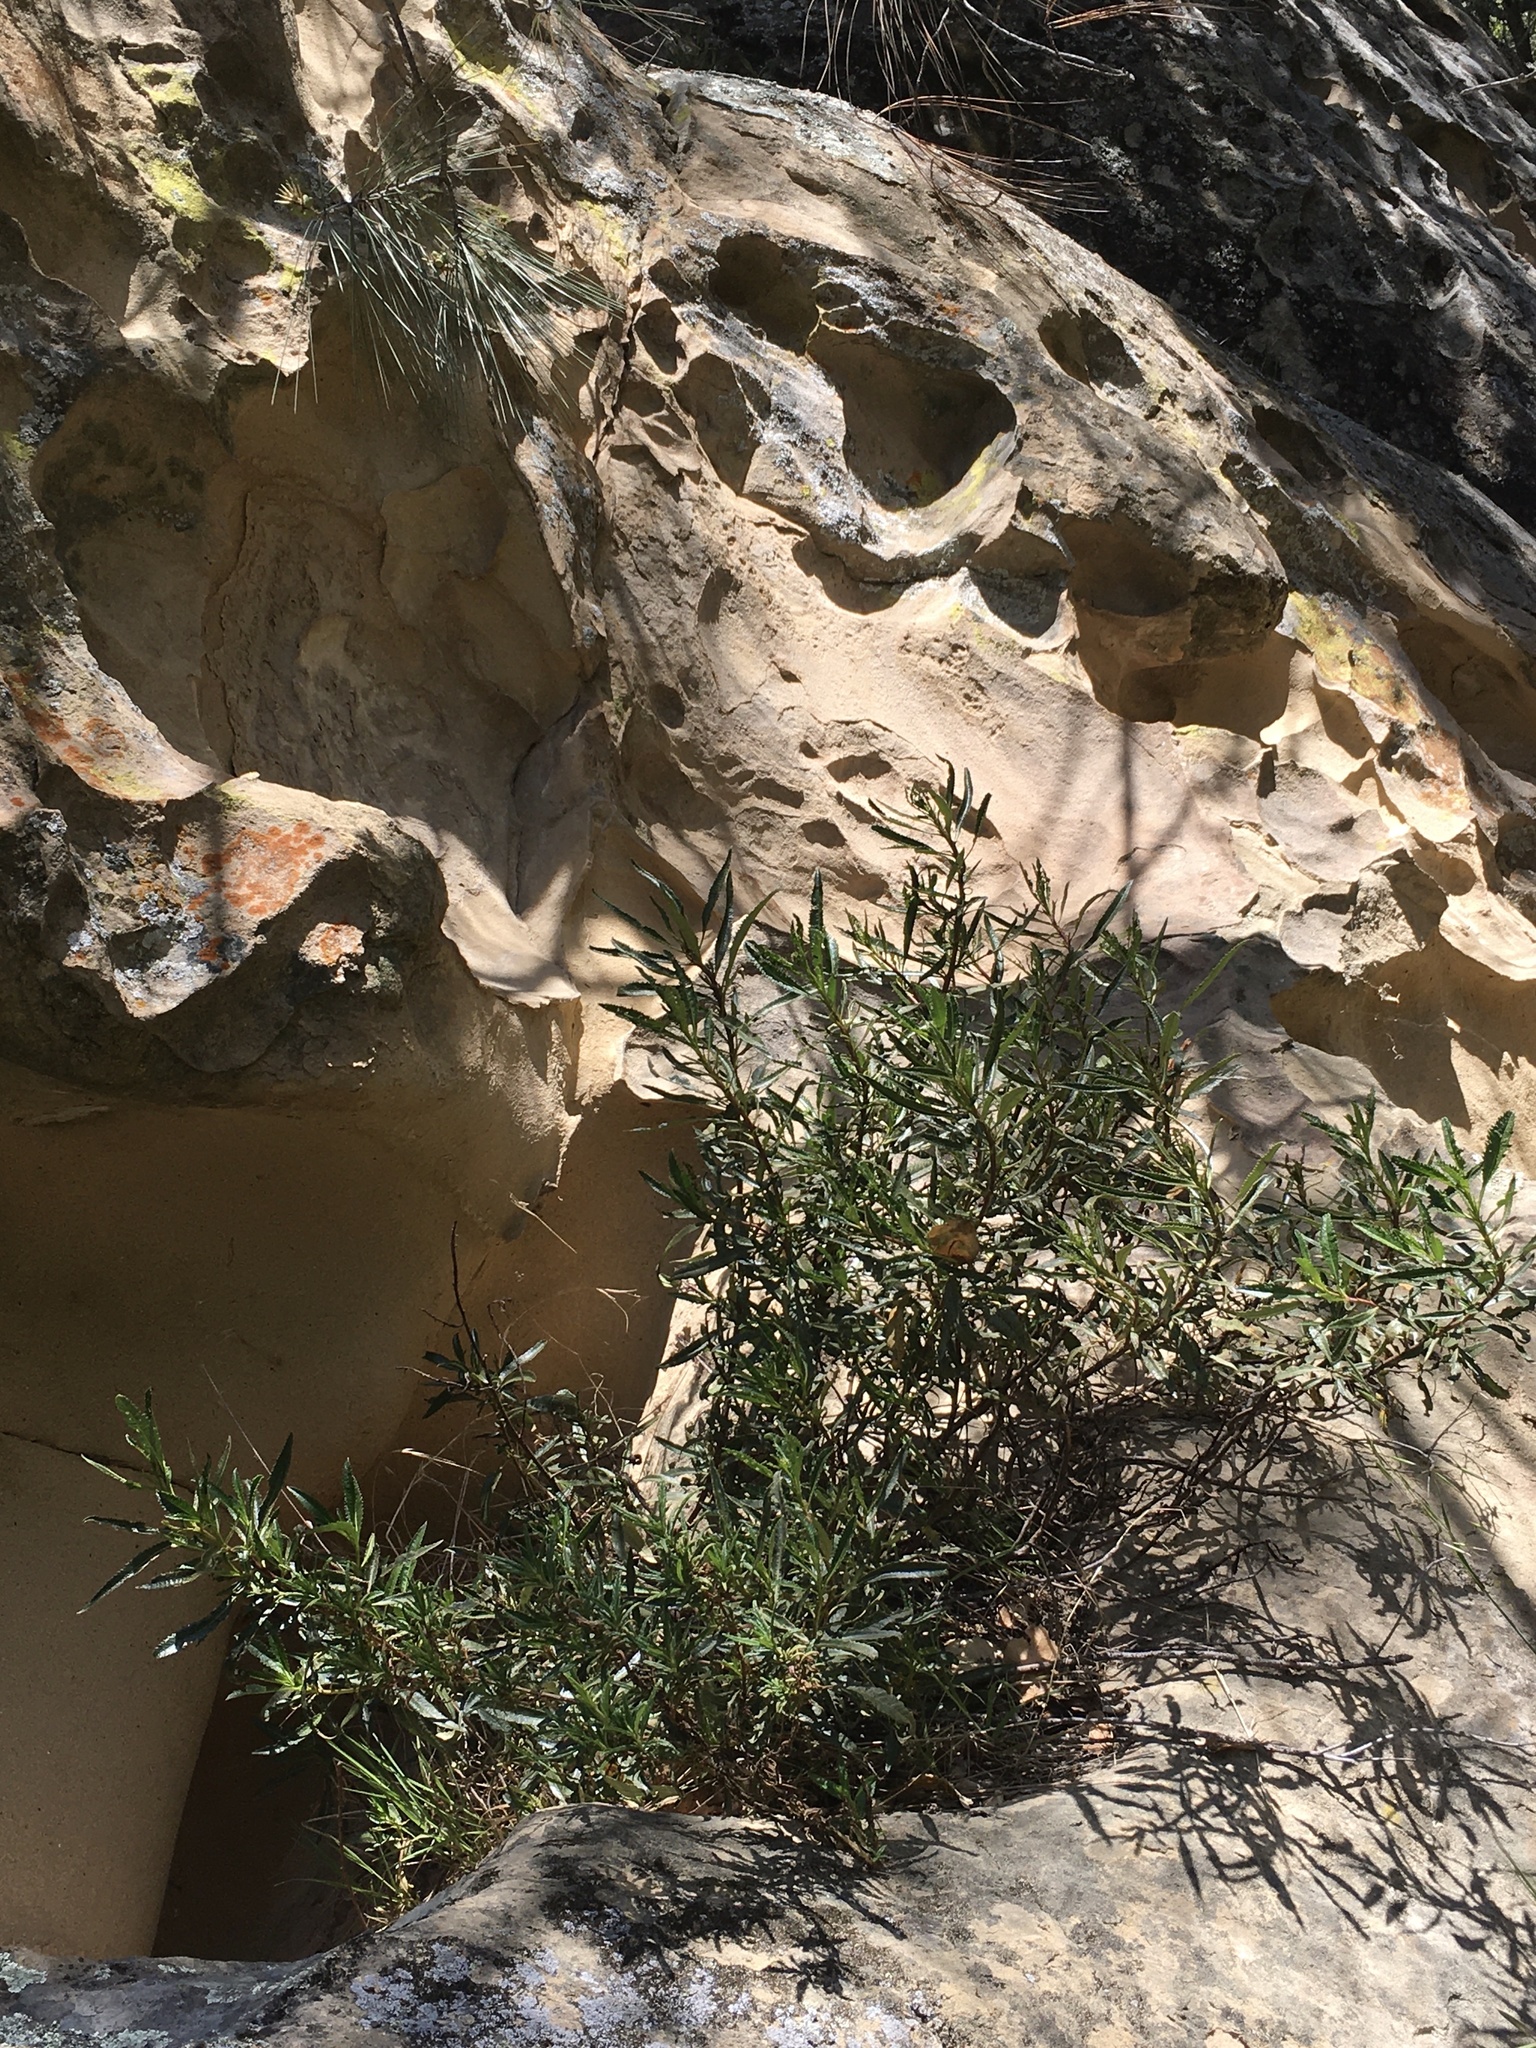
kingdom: Plantae
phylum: Tracheophyta
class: Magnoliopsida
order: Boraginales
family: Namaceae
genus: Eriodictyon
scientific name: Eriodictyon californicum
